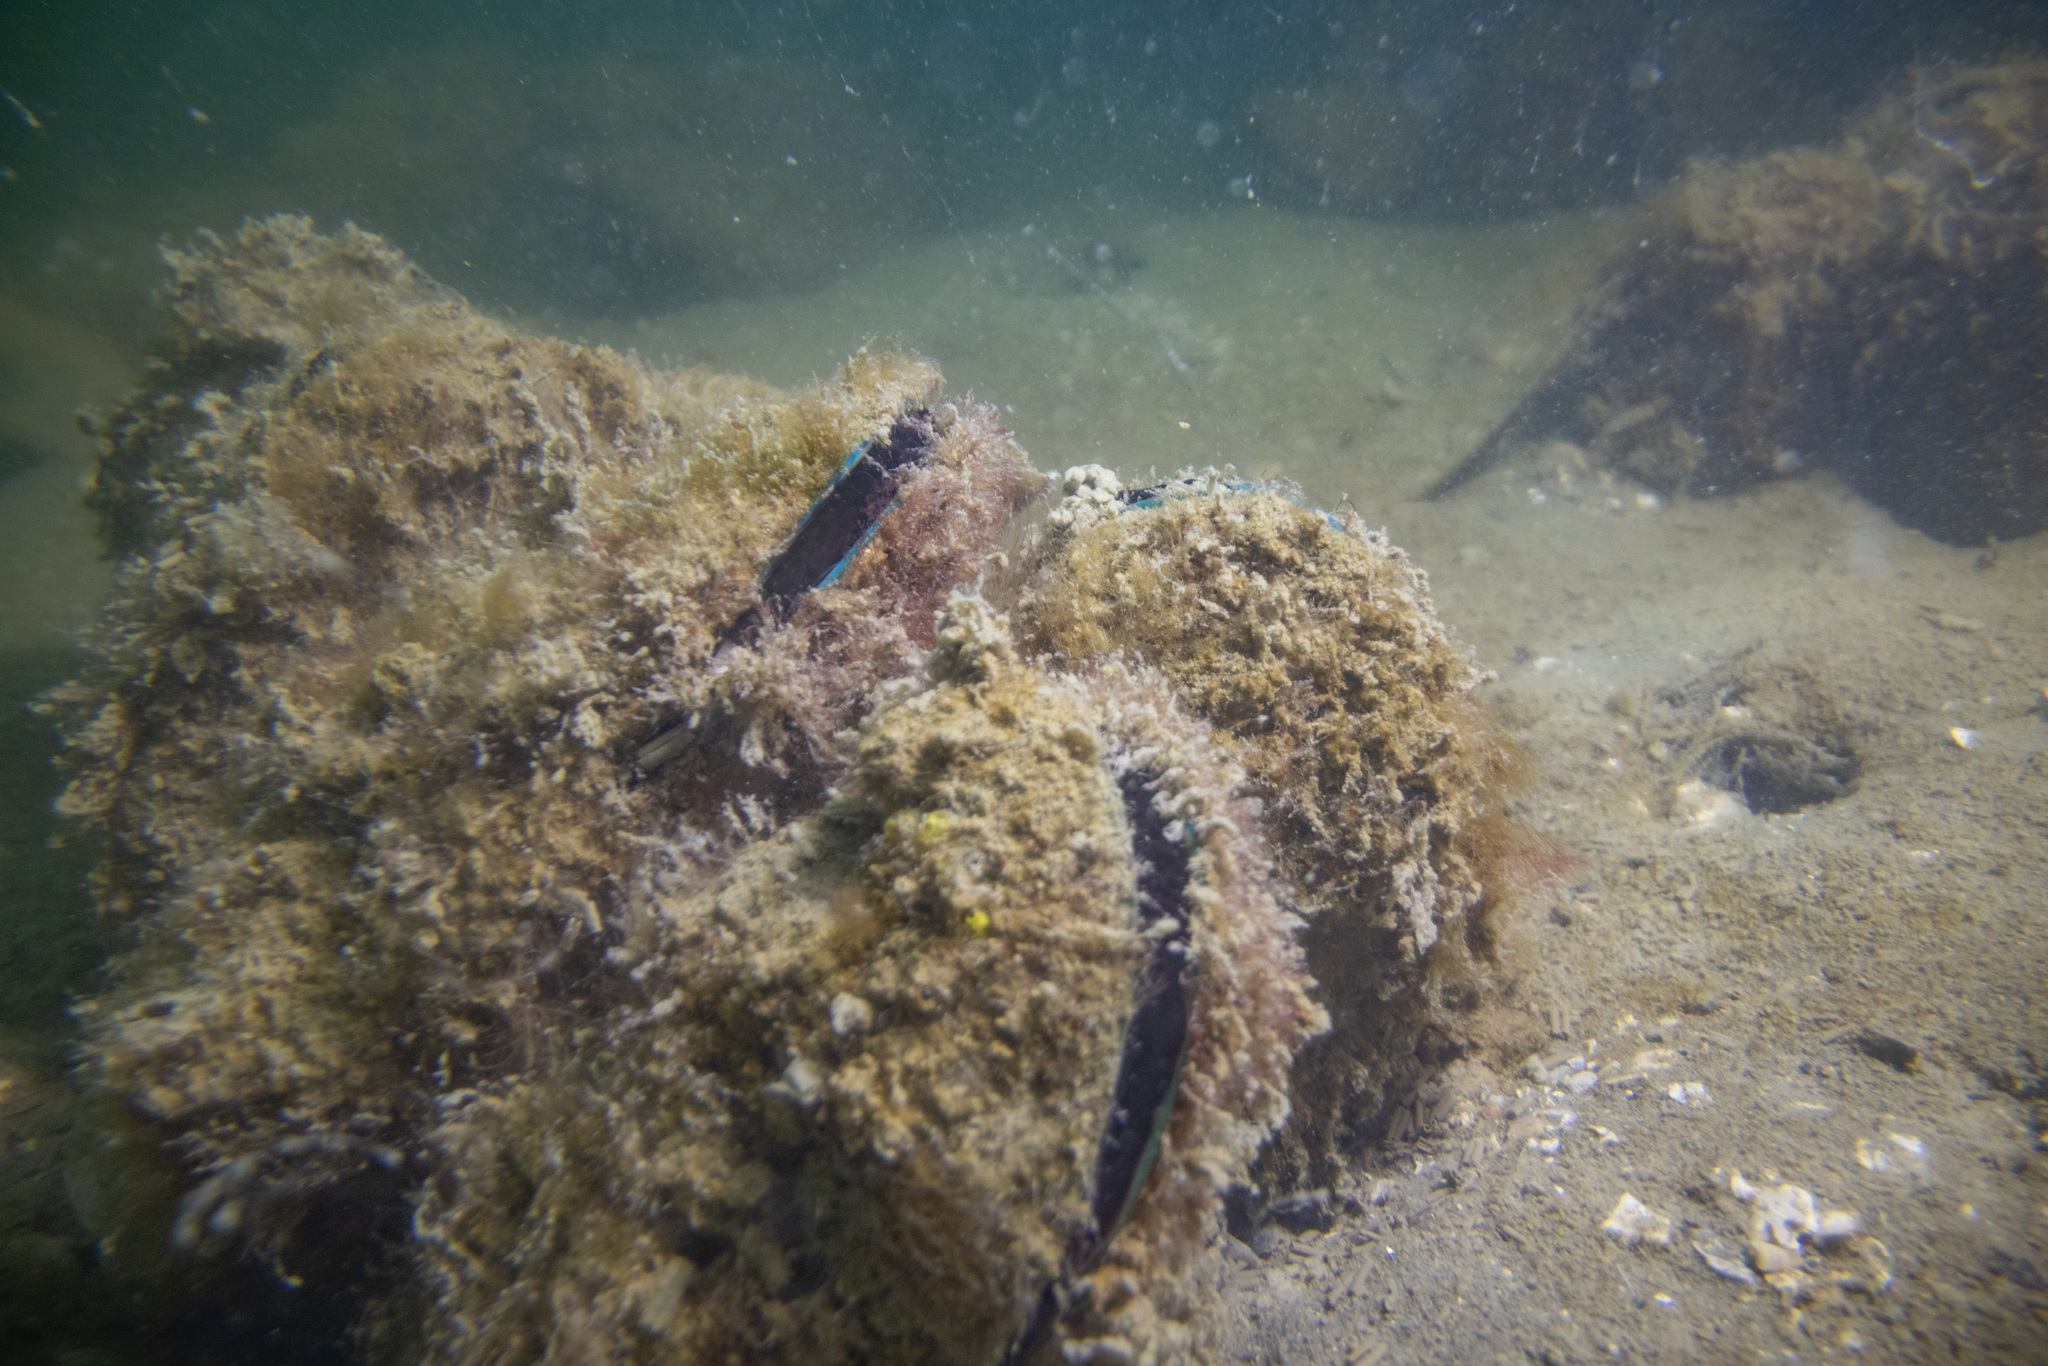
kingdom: Animalia
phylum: Mollusca
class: Bivalvia
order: Mytilida
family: Mytilidae
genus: Perna
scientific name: Perna canaliculus
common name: New zealand greenshelltm
